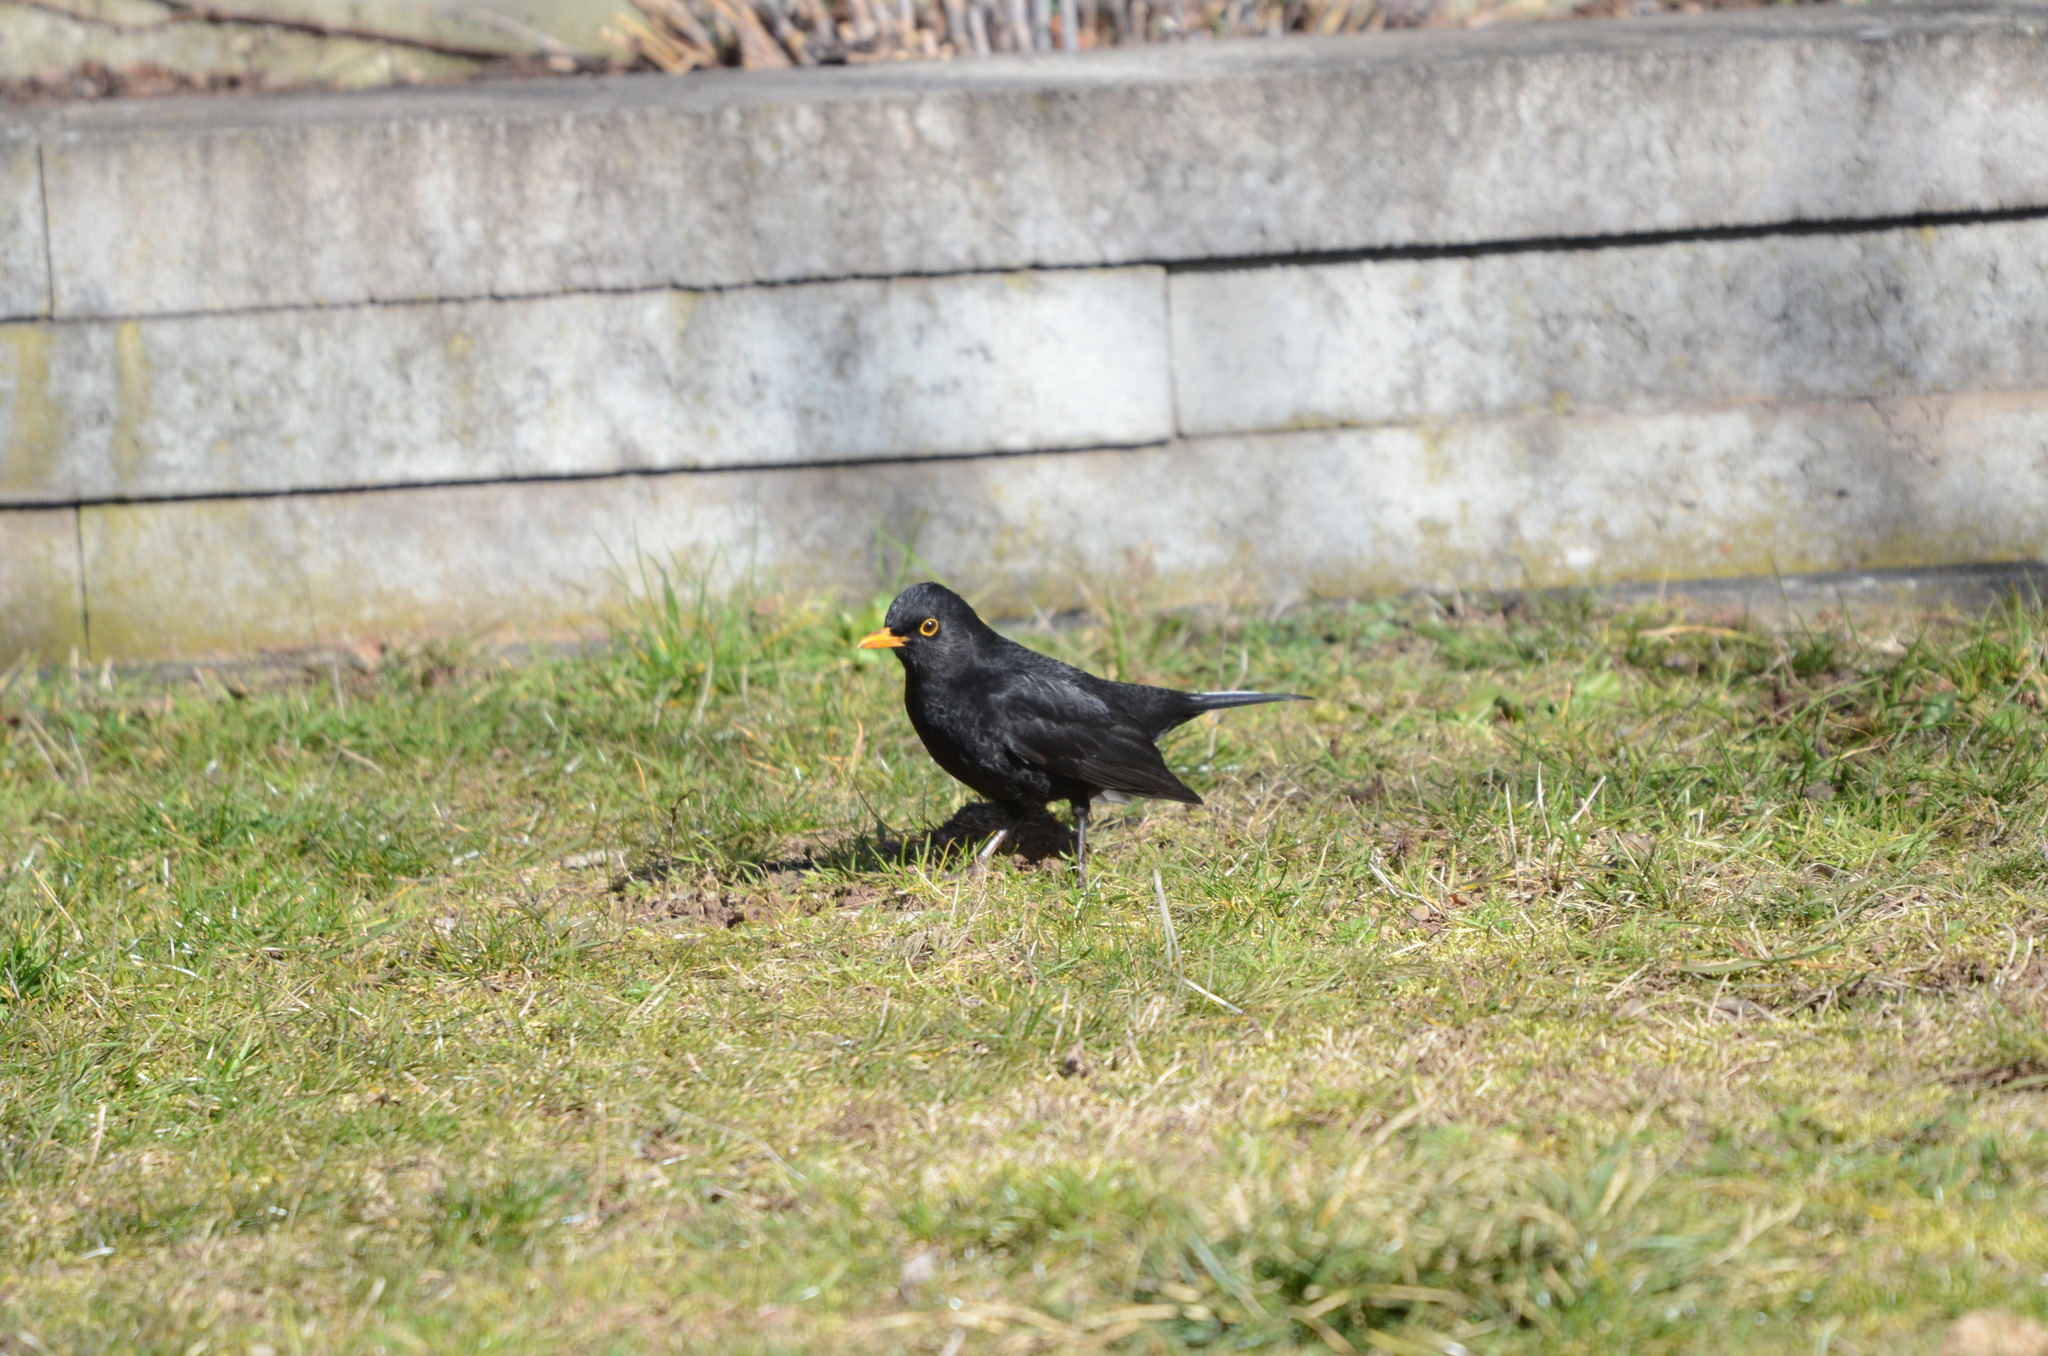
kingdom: Animalia
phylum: Chordata
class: Aves
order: Passeriformes
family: Turdidae
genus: Turdus
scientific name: Turdus merula
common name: Common blackbird
